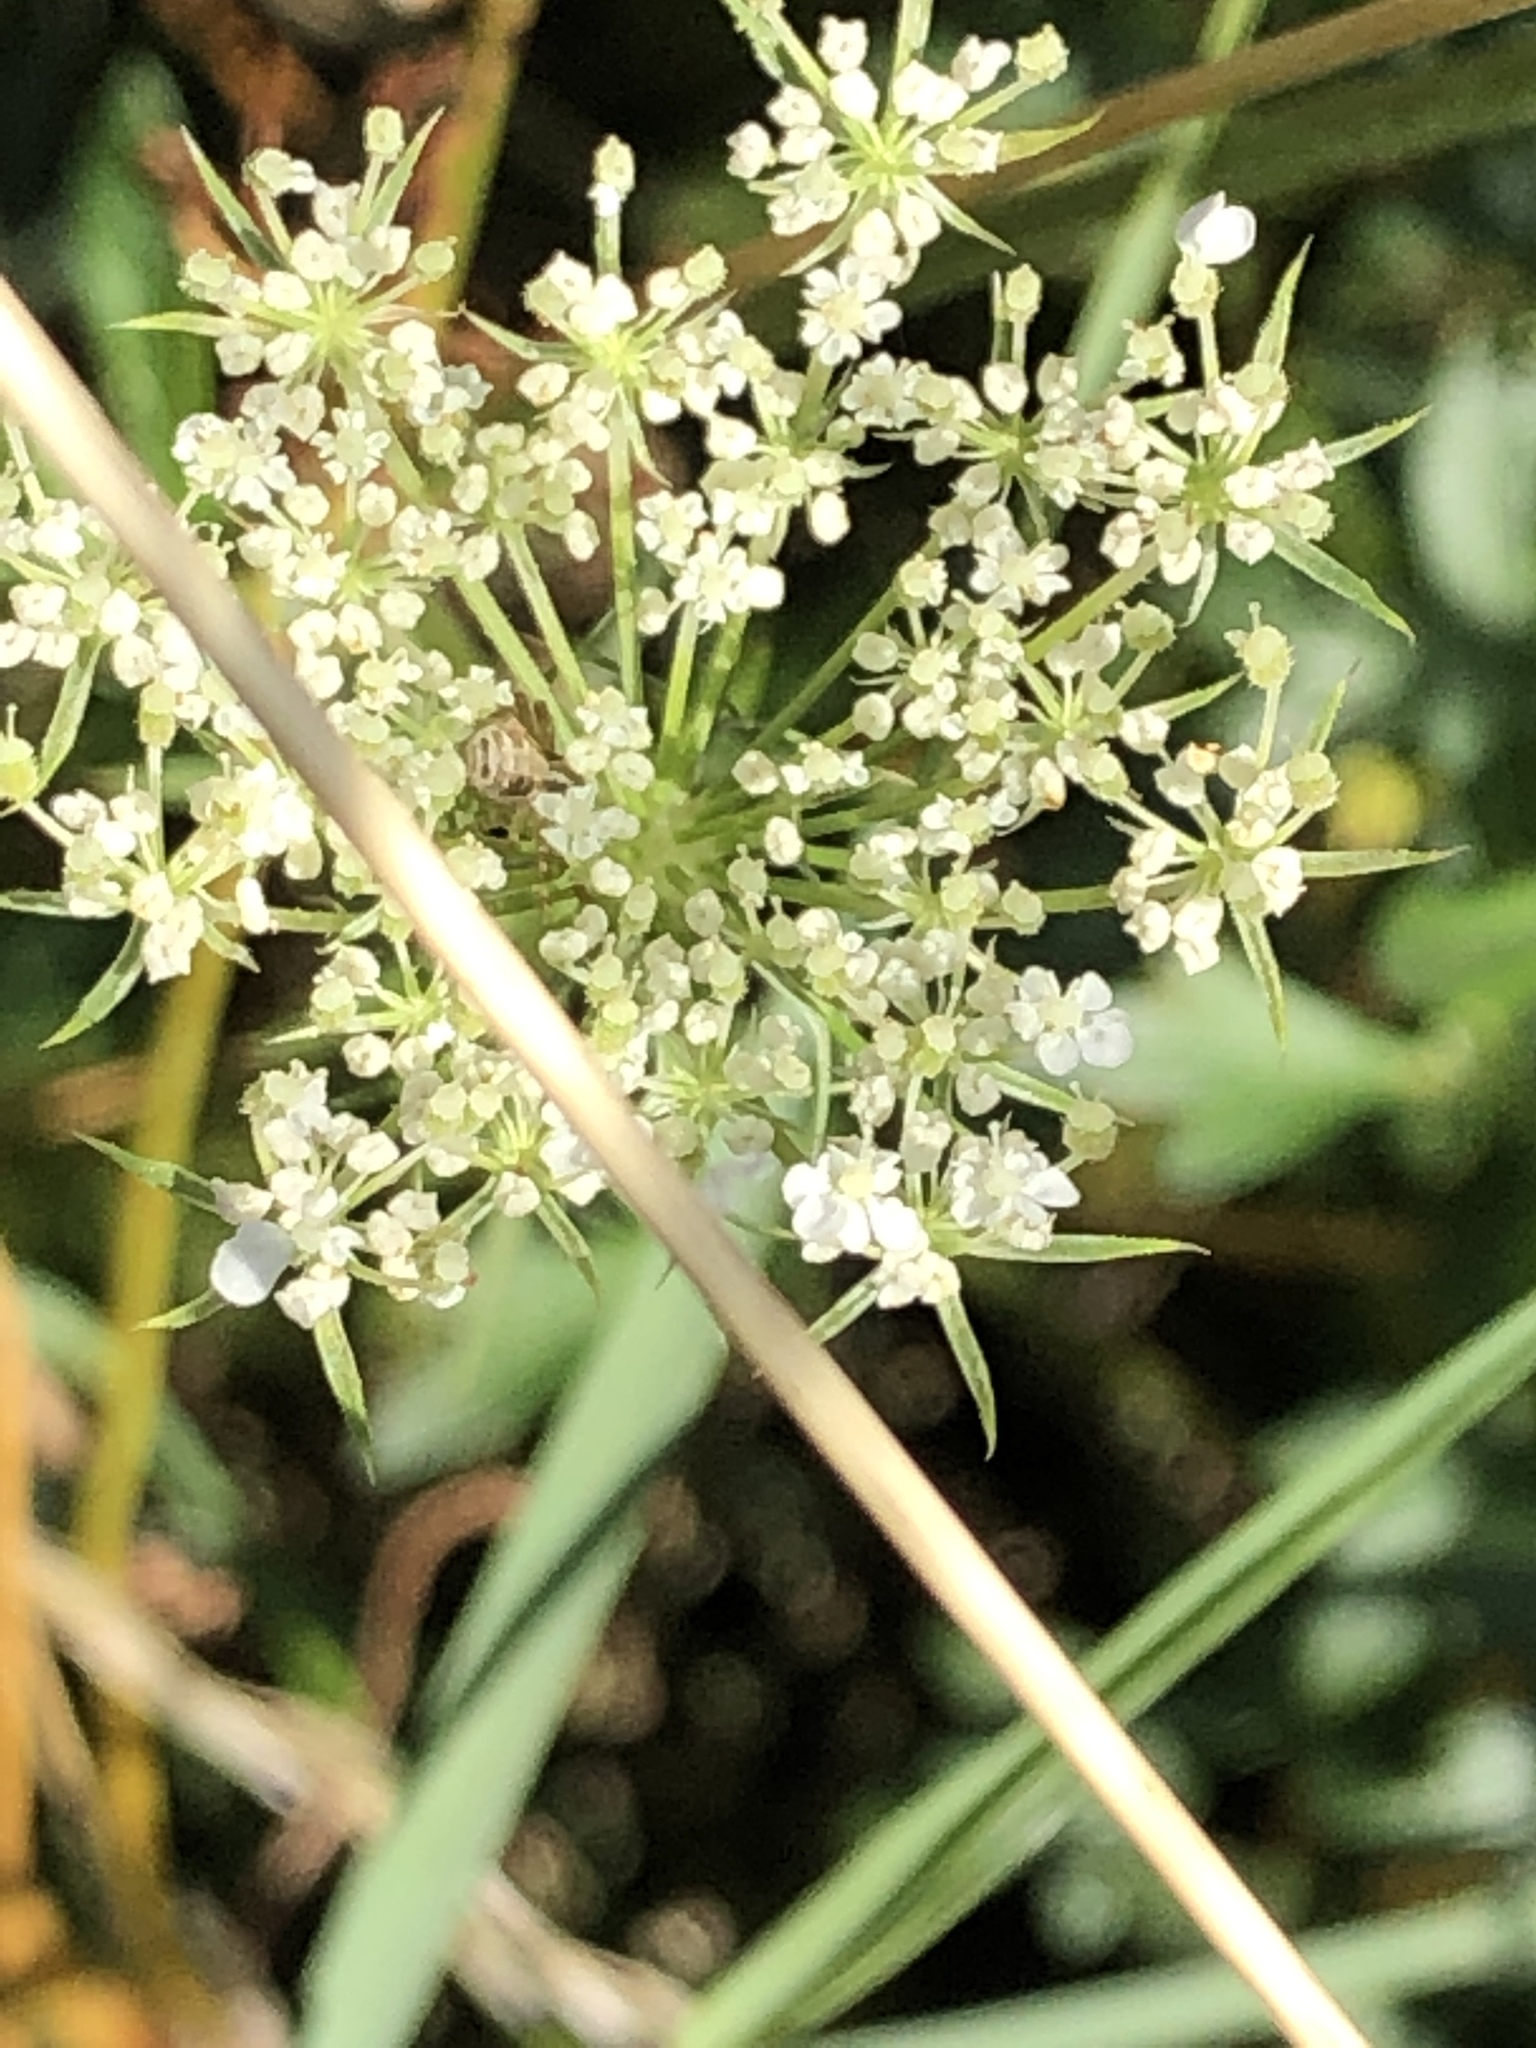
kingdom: Plantae
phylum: Tracheophyta
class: Magnoliopsida
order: Apiales
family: Apiaceae
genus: Daucus
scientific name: Daucus carota
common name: Wild carrot
